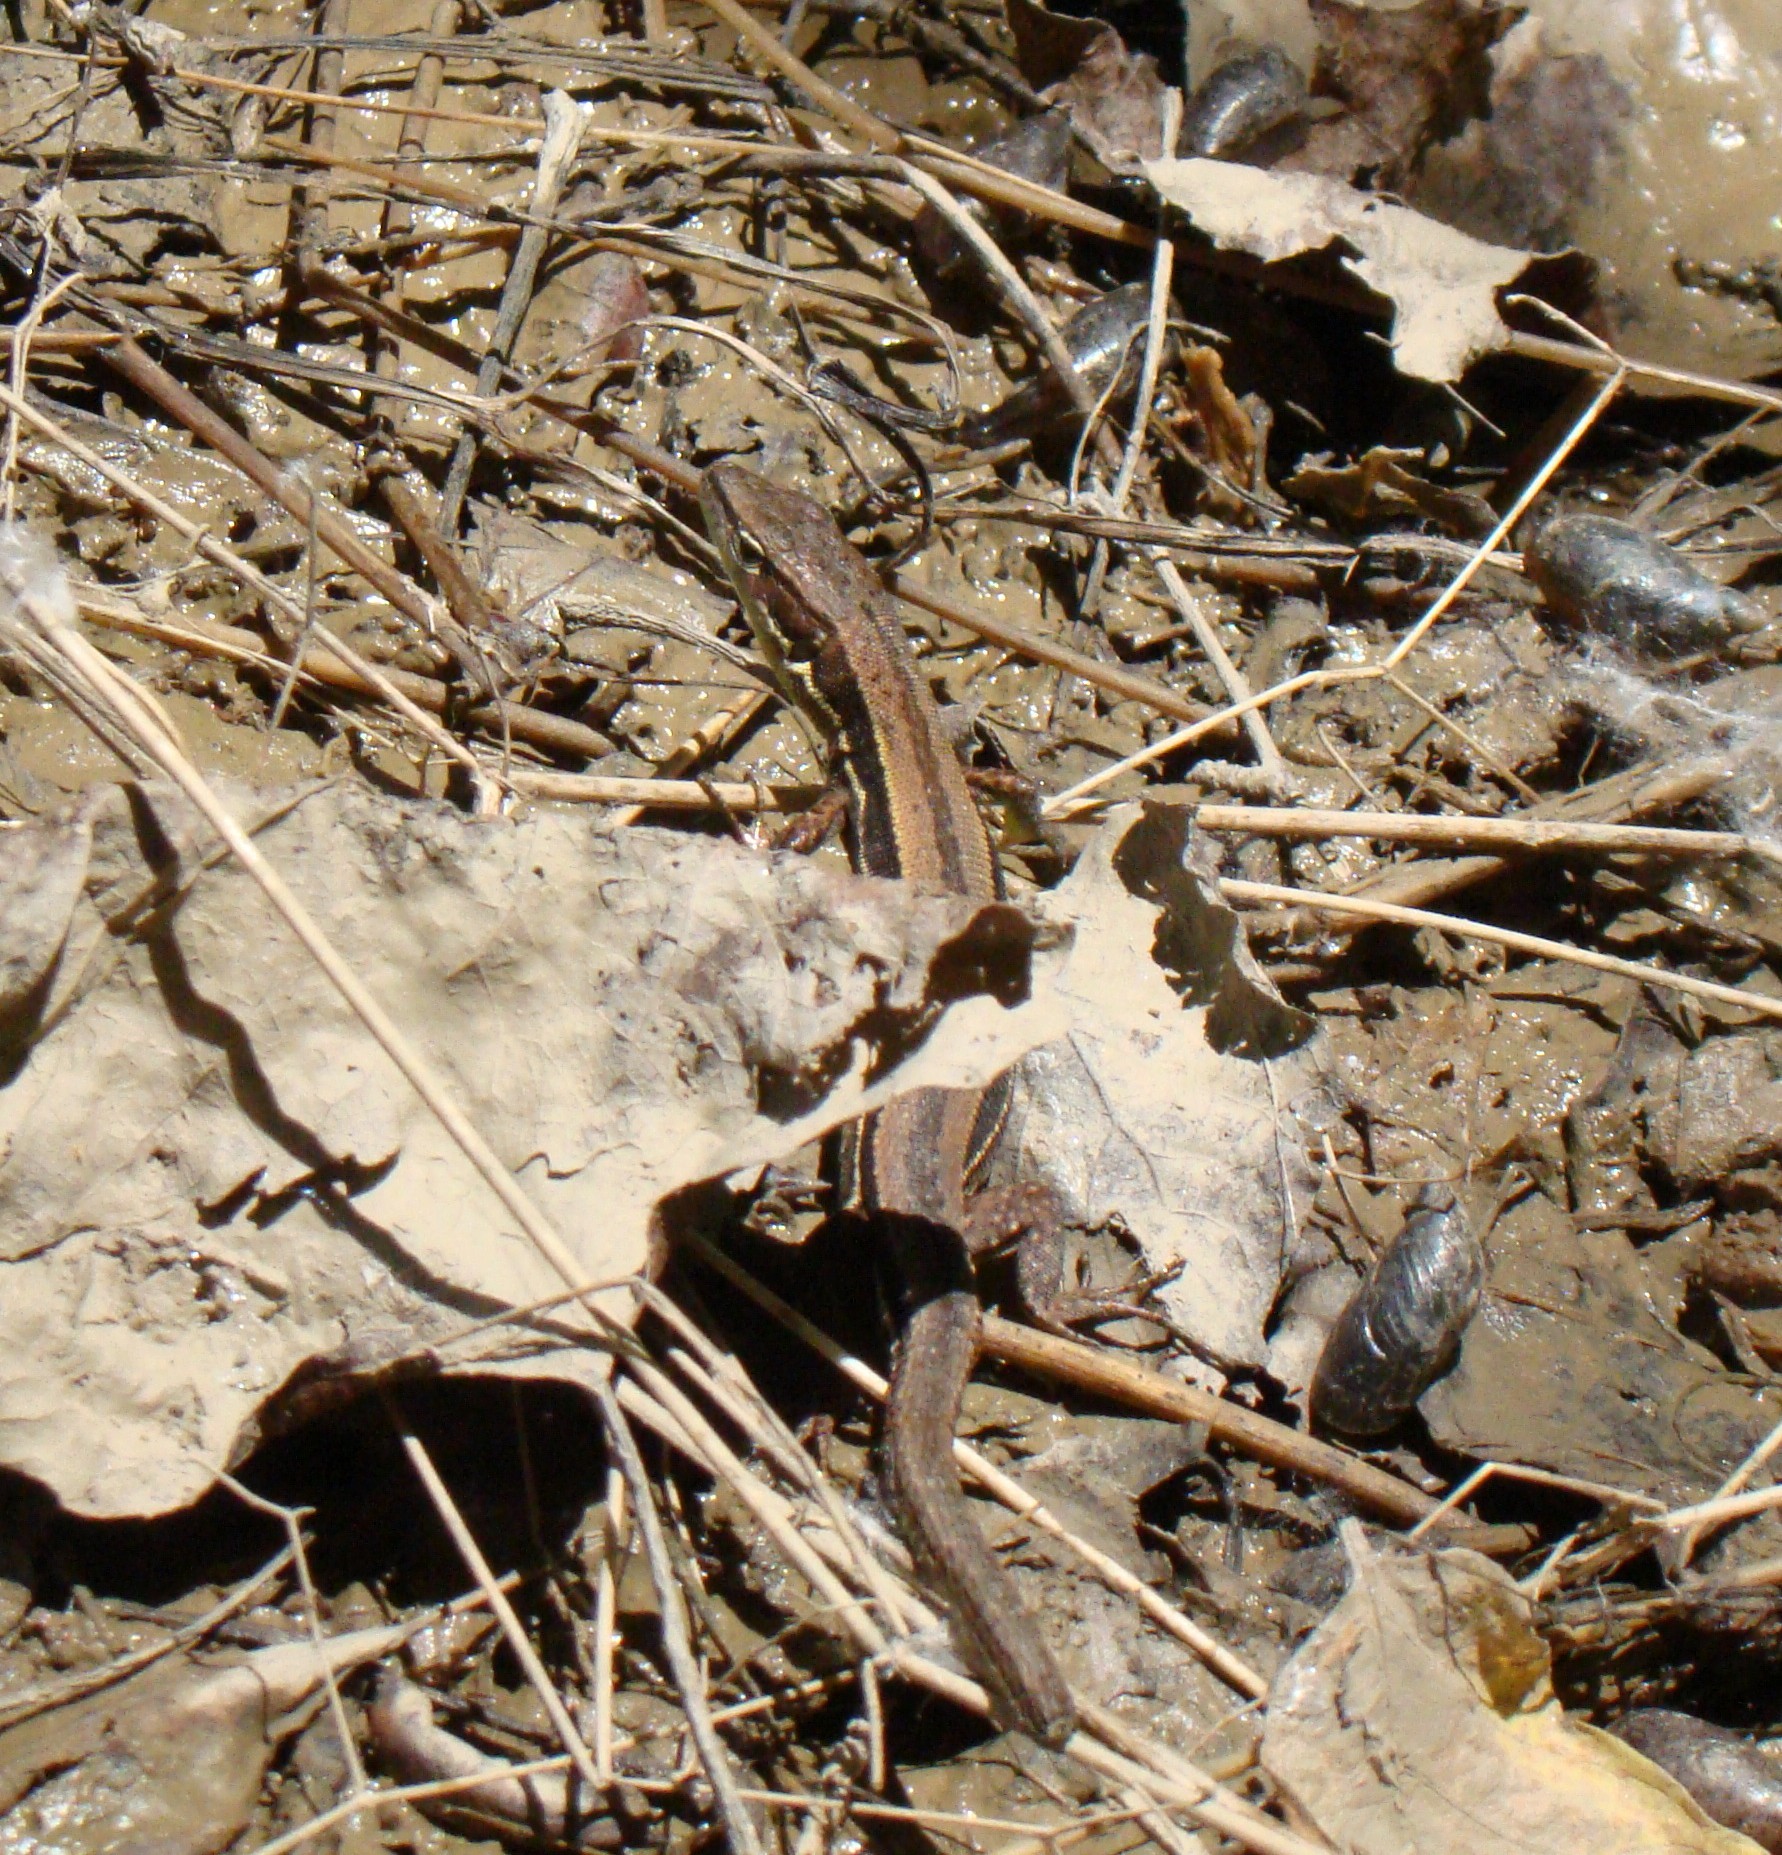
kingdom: Animalia
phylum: Chordata
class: Squamata
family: Lacertidae
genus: Darevskia
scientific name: Darevskia praticola
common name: Meadow lizard
